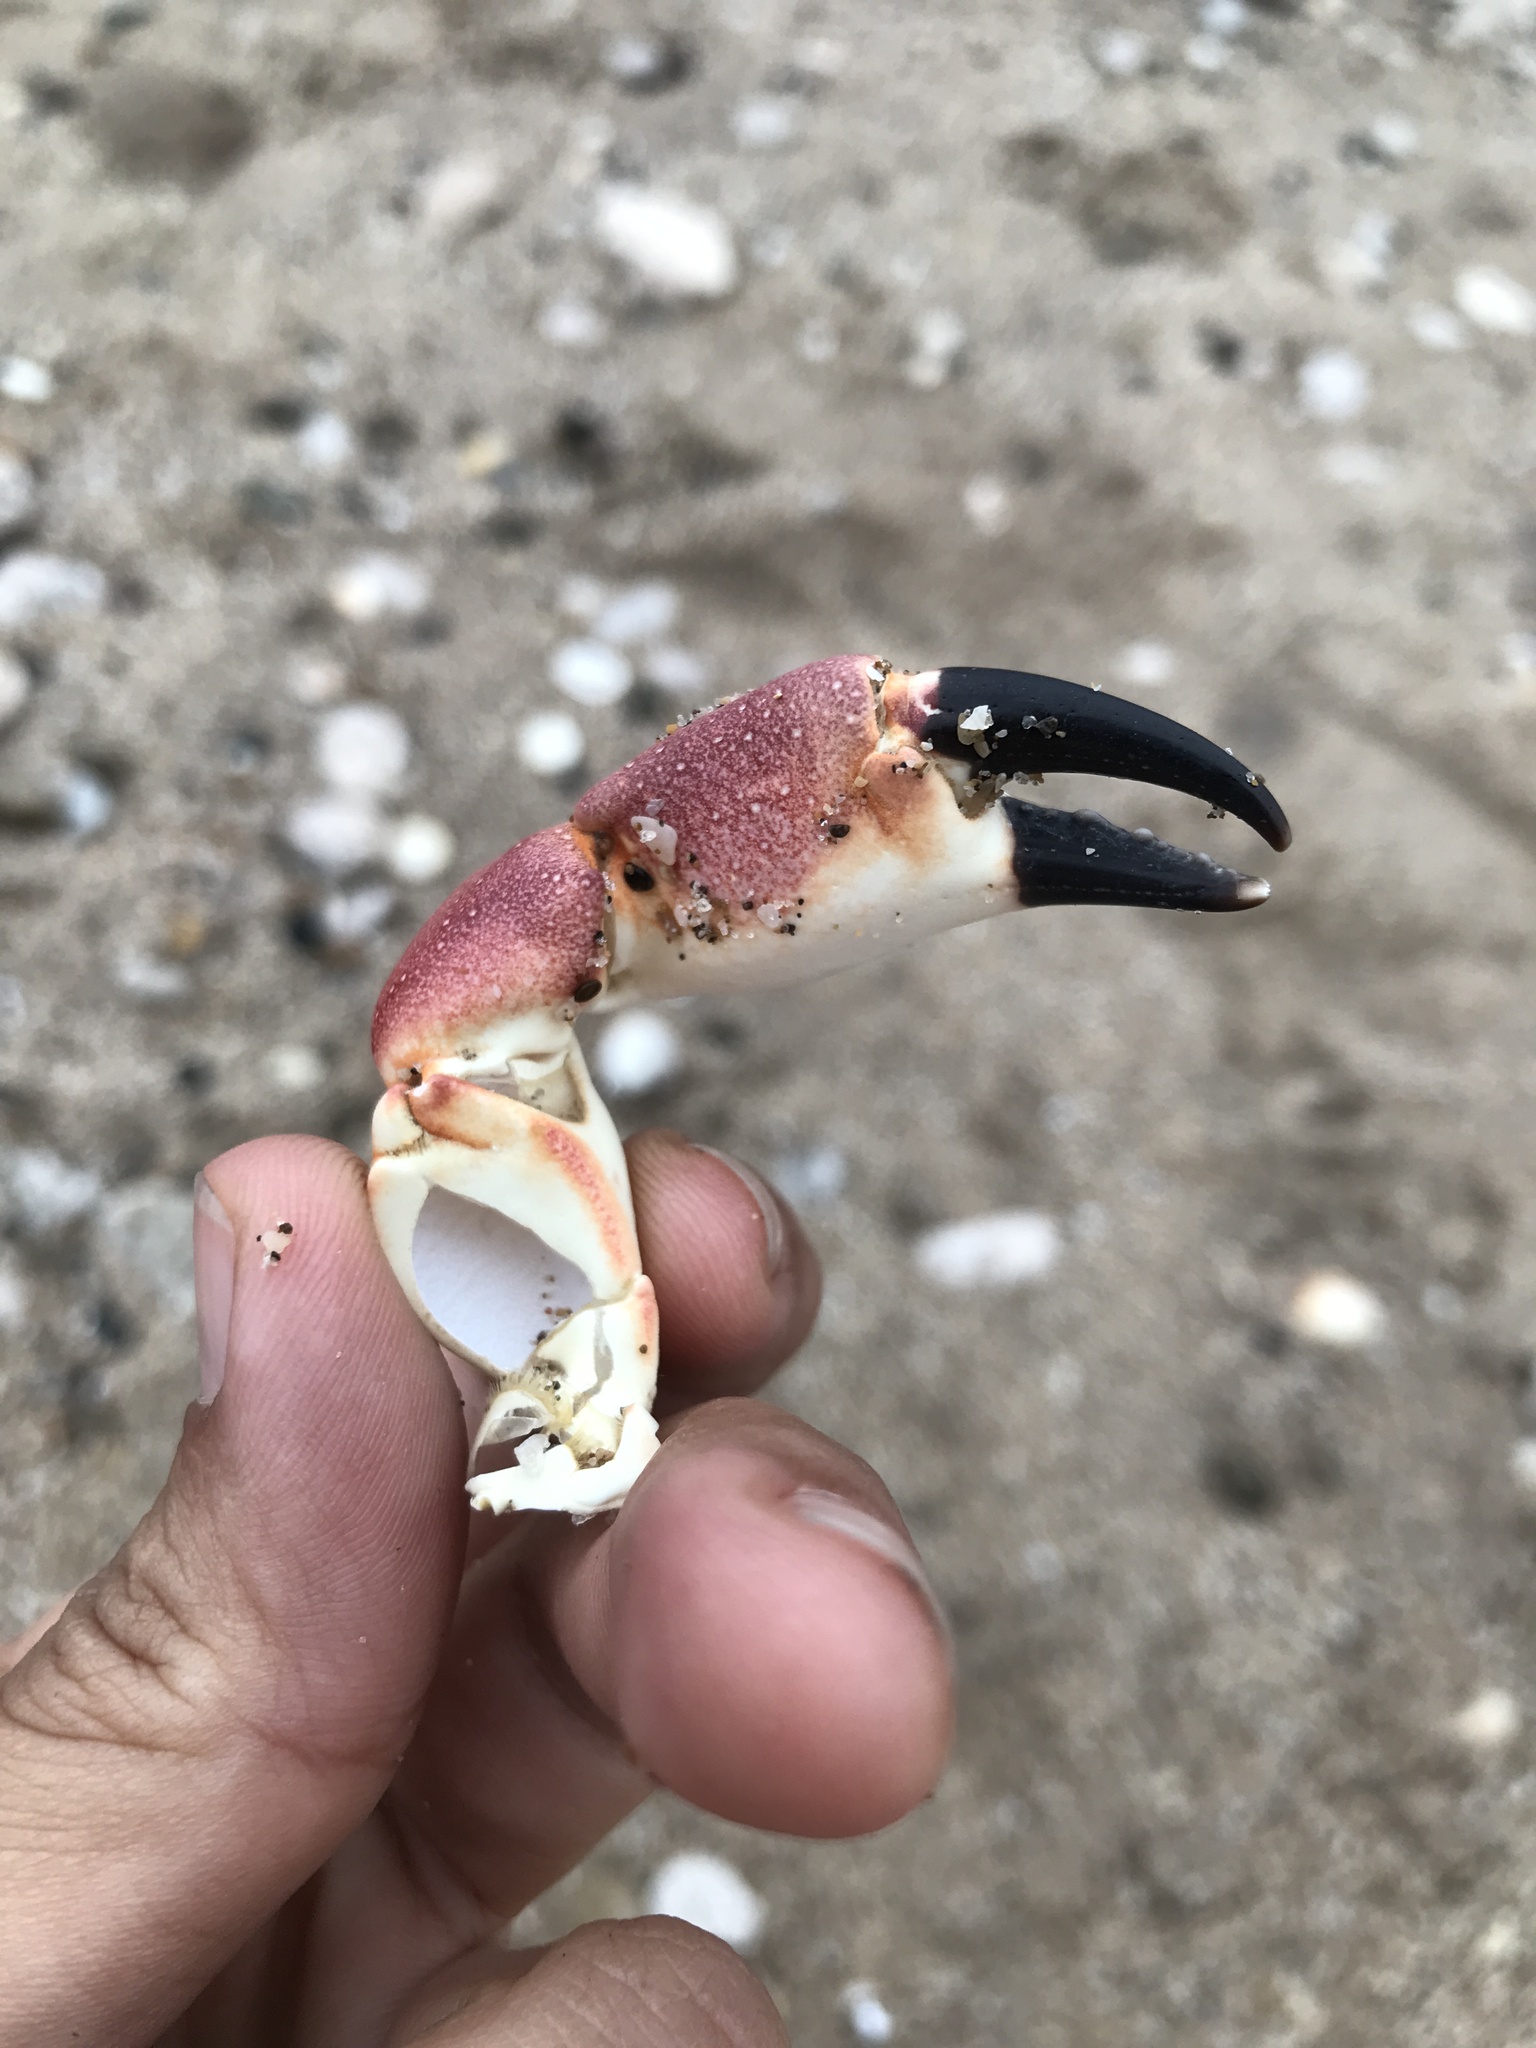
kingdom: Animalia
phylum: Arthropoda
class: Malacostraca
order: Decapoda
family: Platyxanthidae
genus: Danielethus
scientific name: Danielethus crenulatus
